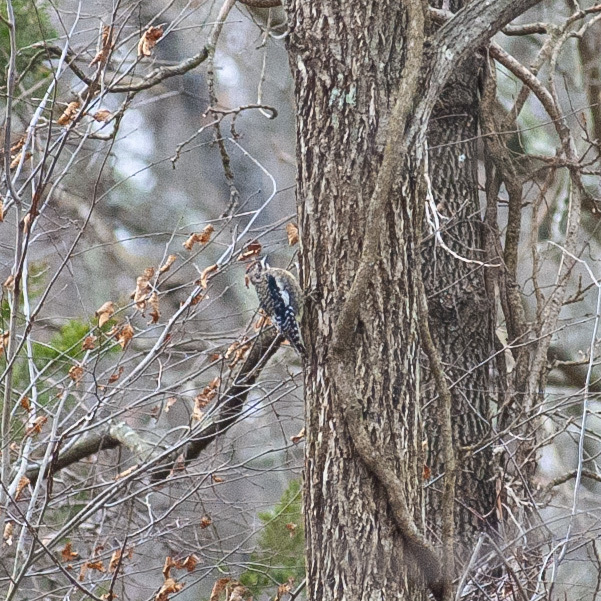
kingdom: Animalia
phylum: Chordata
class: Aves
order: Piciformes
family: Picidae
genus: Sphyrapicus
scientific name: Sphyrapicus varius
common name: Yellow-bellied sapsucker
